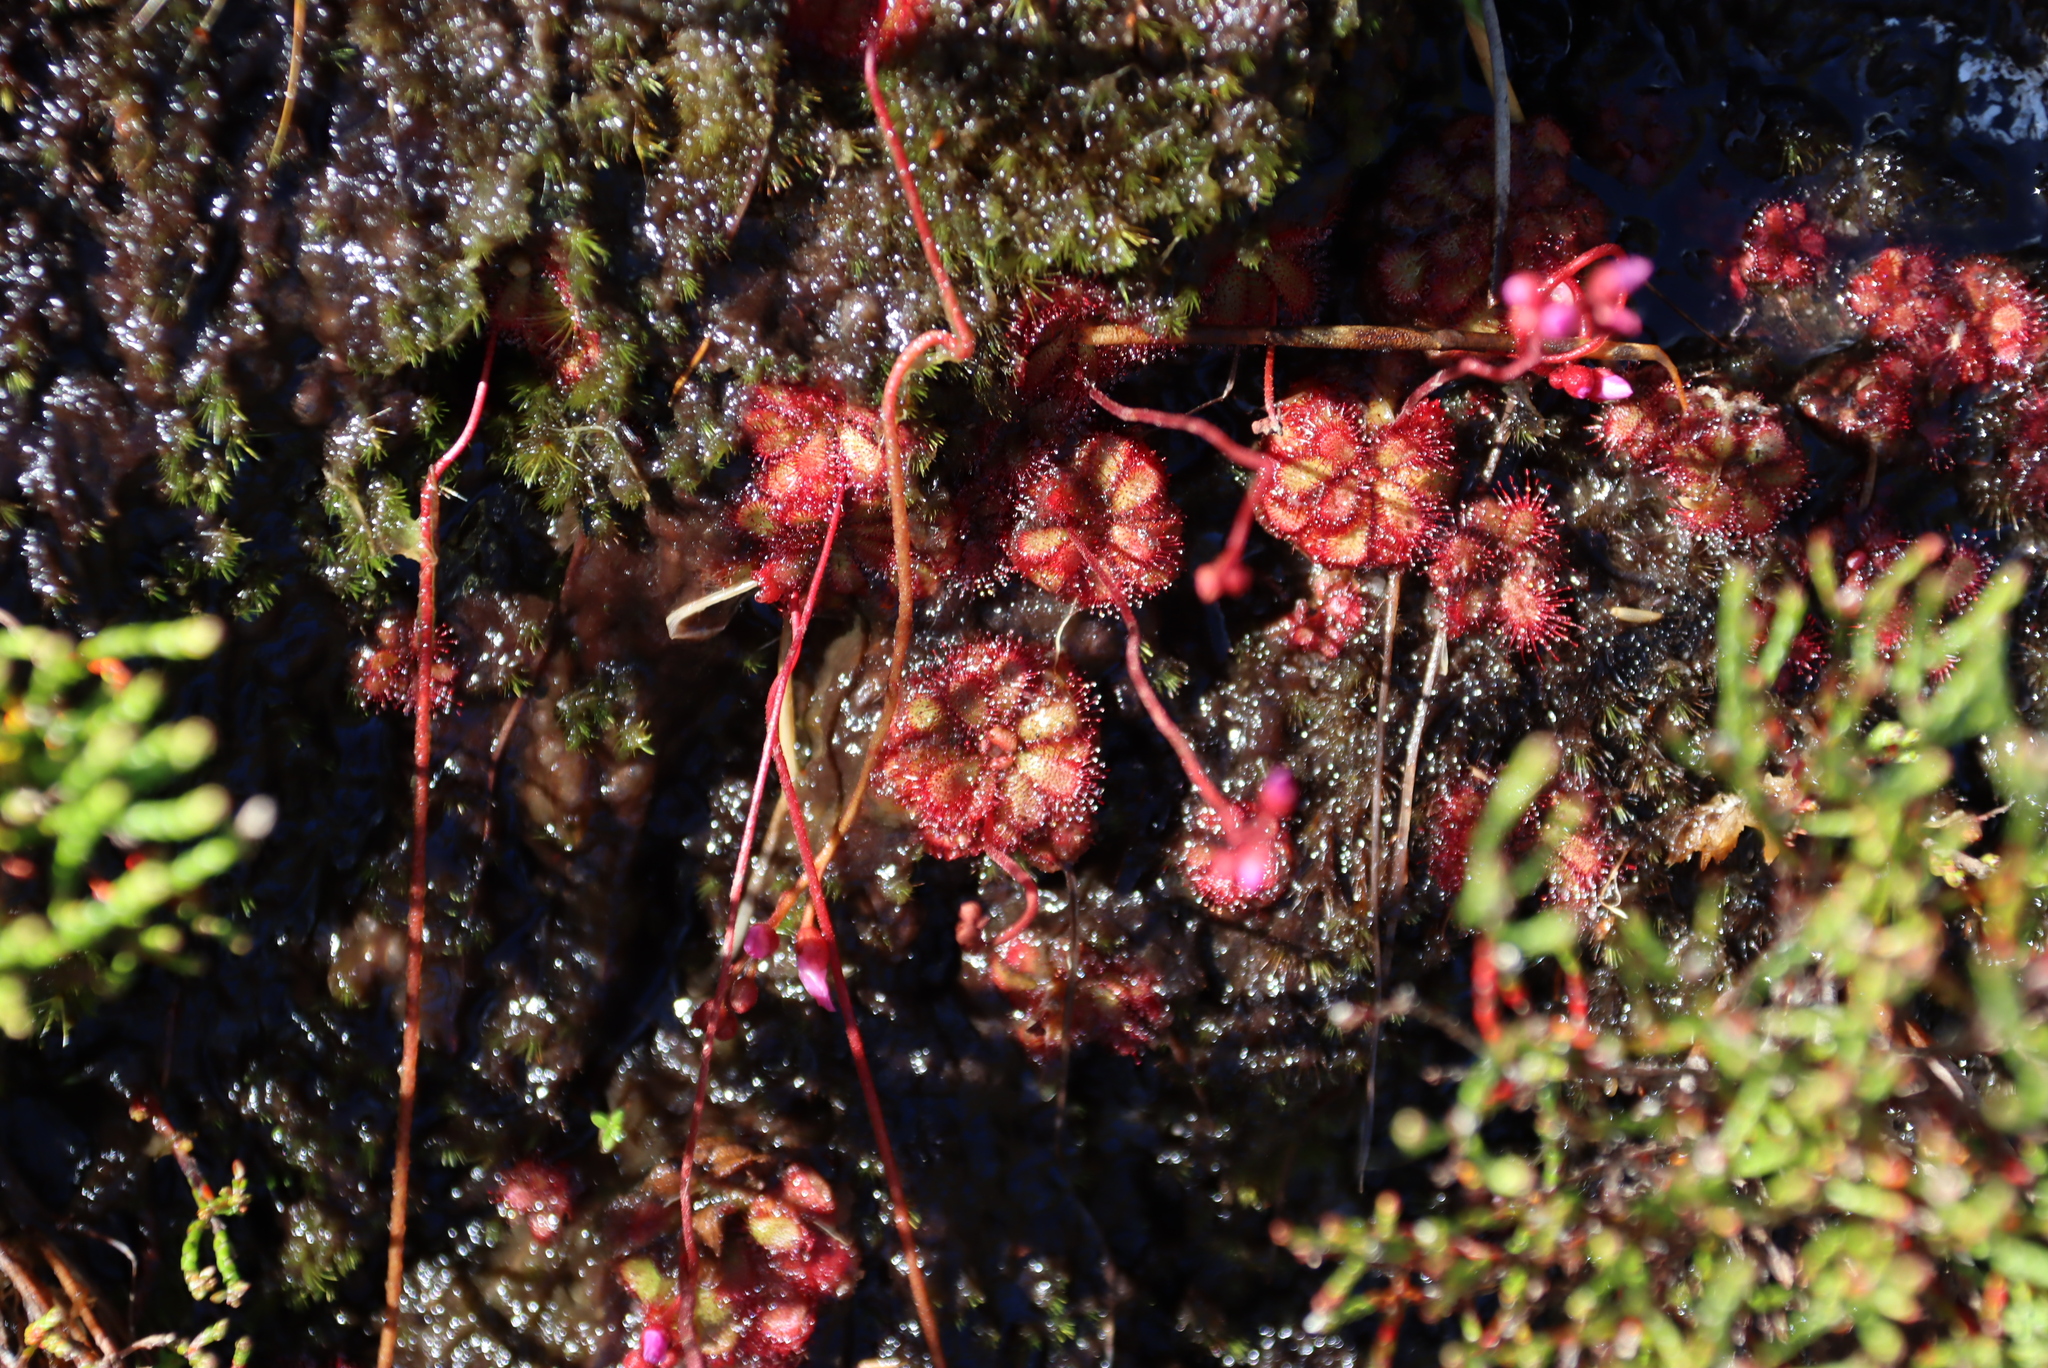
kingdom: Plantae
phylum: Tracheophyta
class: Magnoliopsida
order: Caryophyllales
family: Droseraceae
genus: Drosera
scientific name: Drosera cuneifolia
